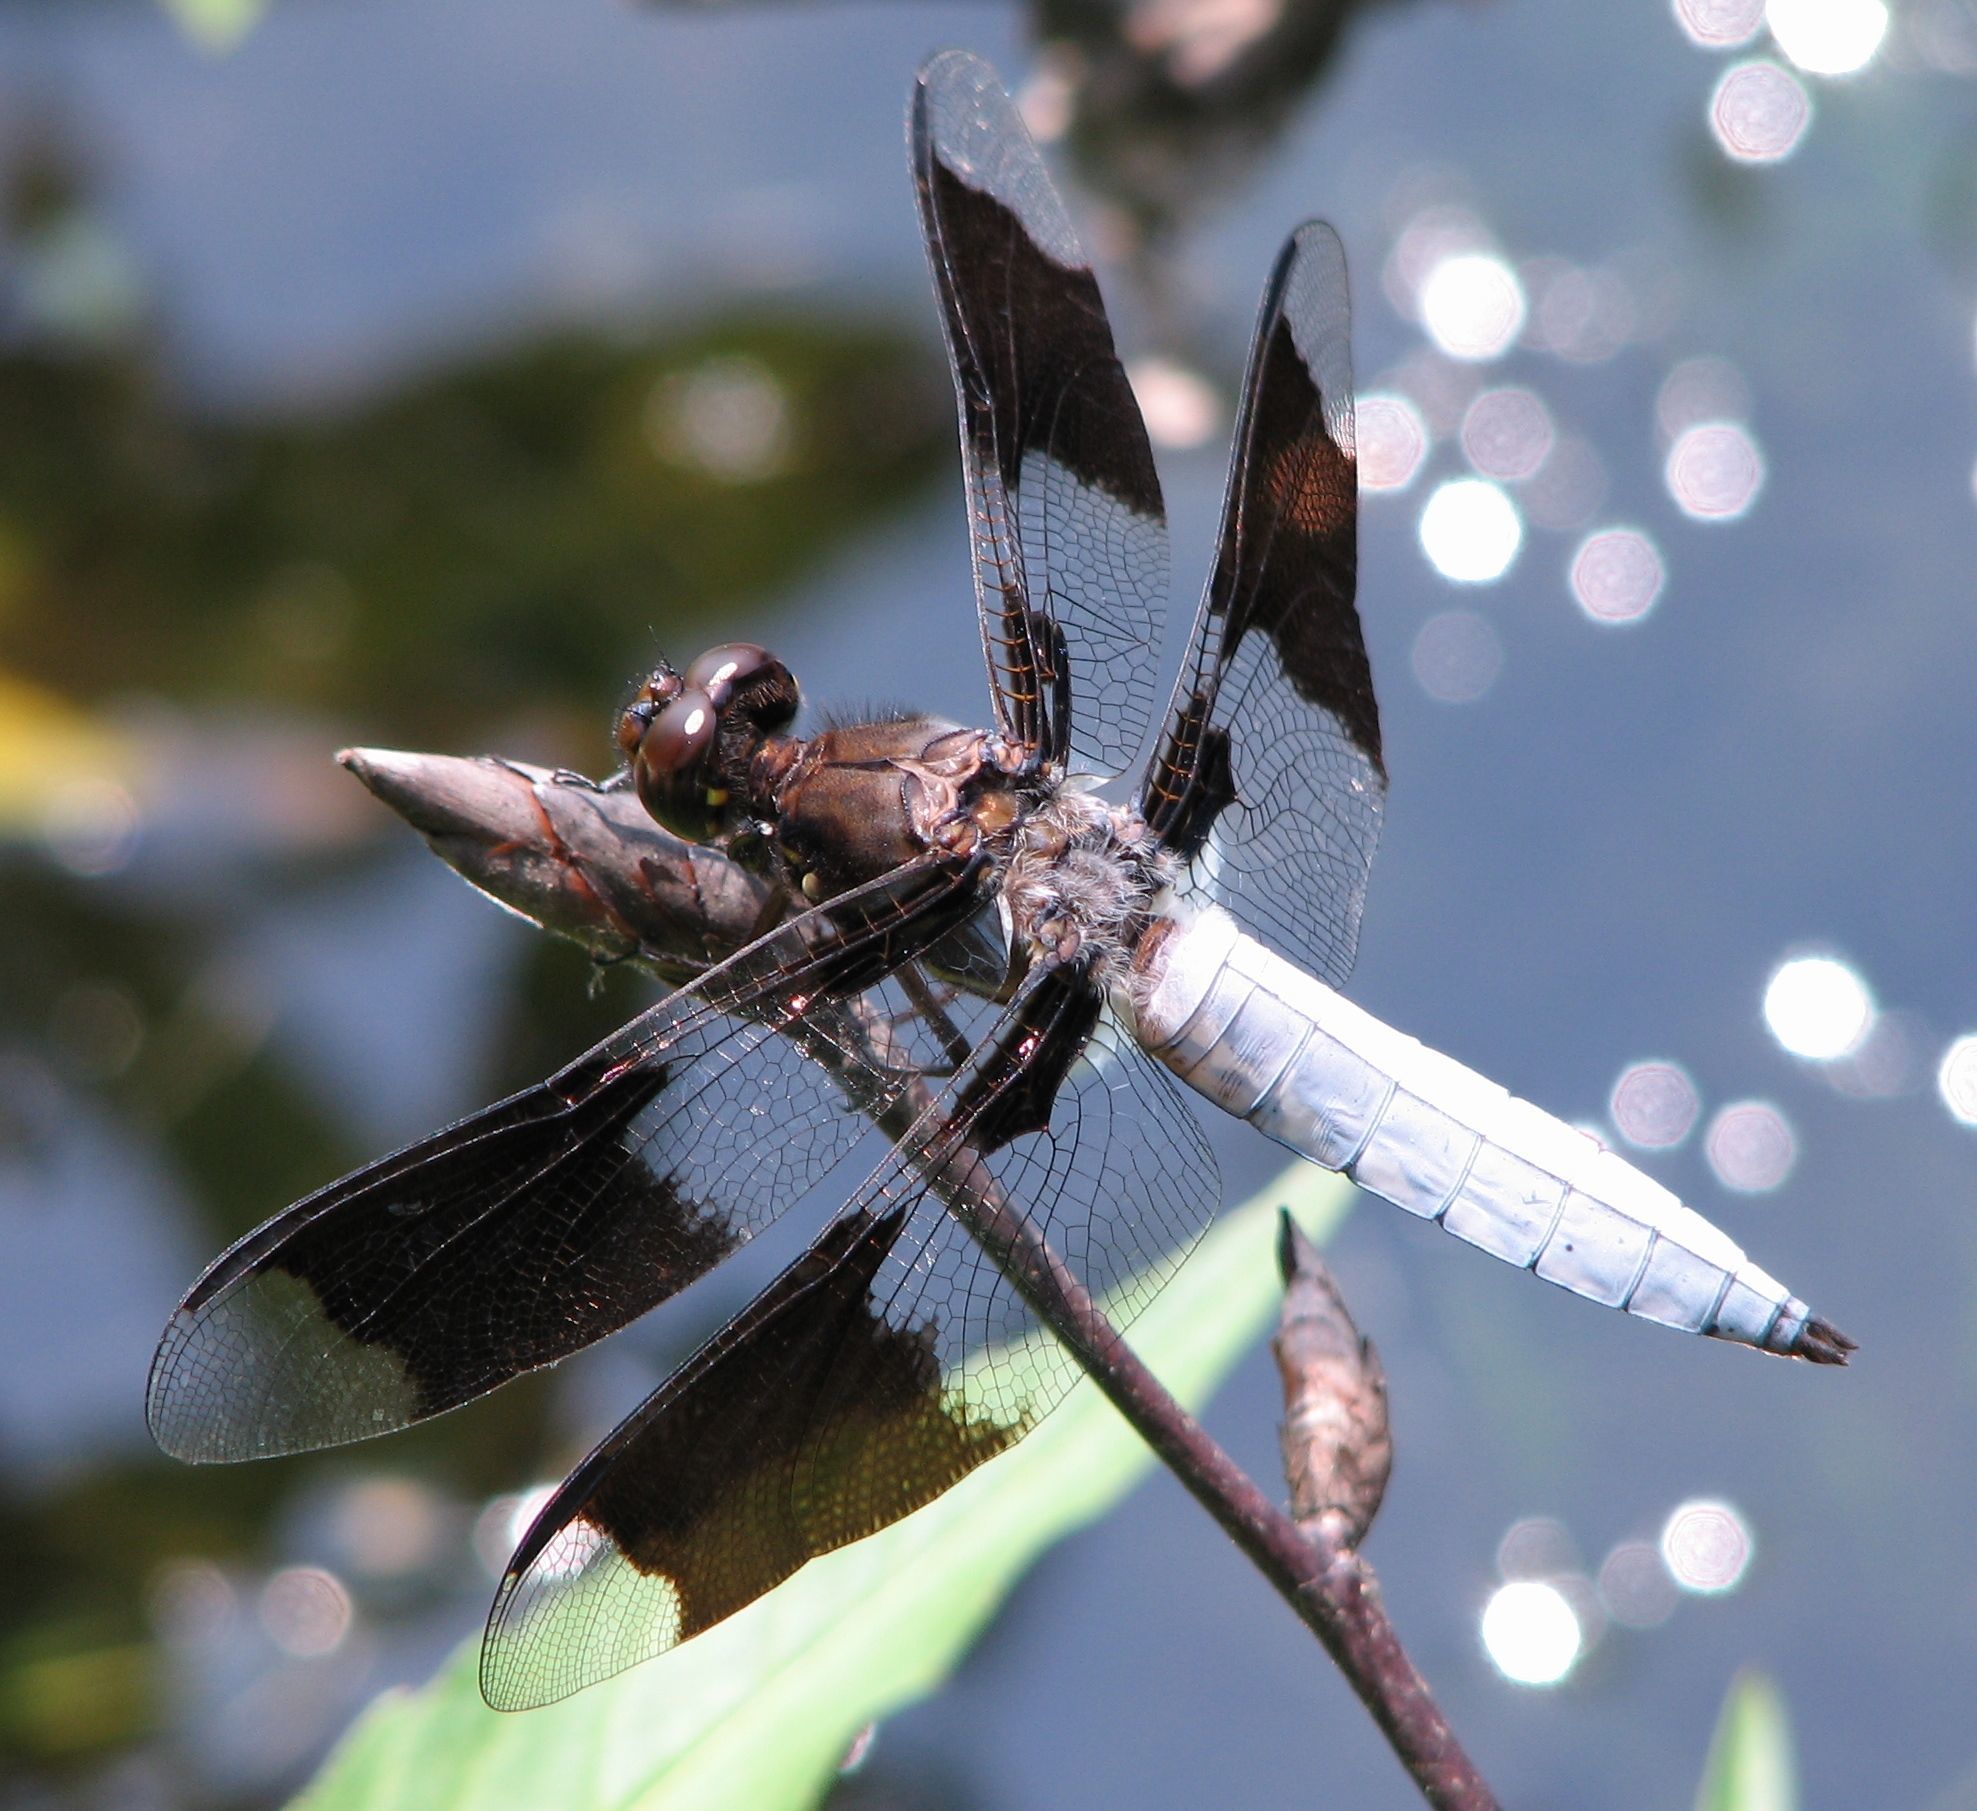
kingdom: Animalia
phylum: Arthropoda
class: Insecta
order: Odonata
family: Libellulidae
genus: Plathemis
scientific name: Plathemis lydia
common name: Common whitetail
